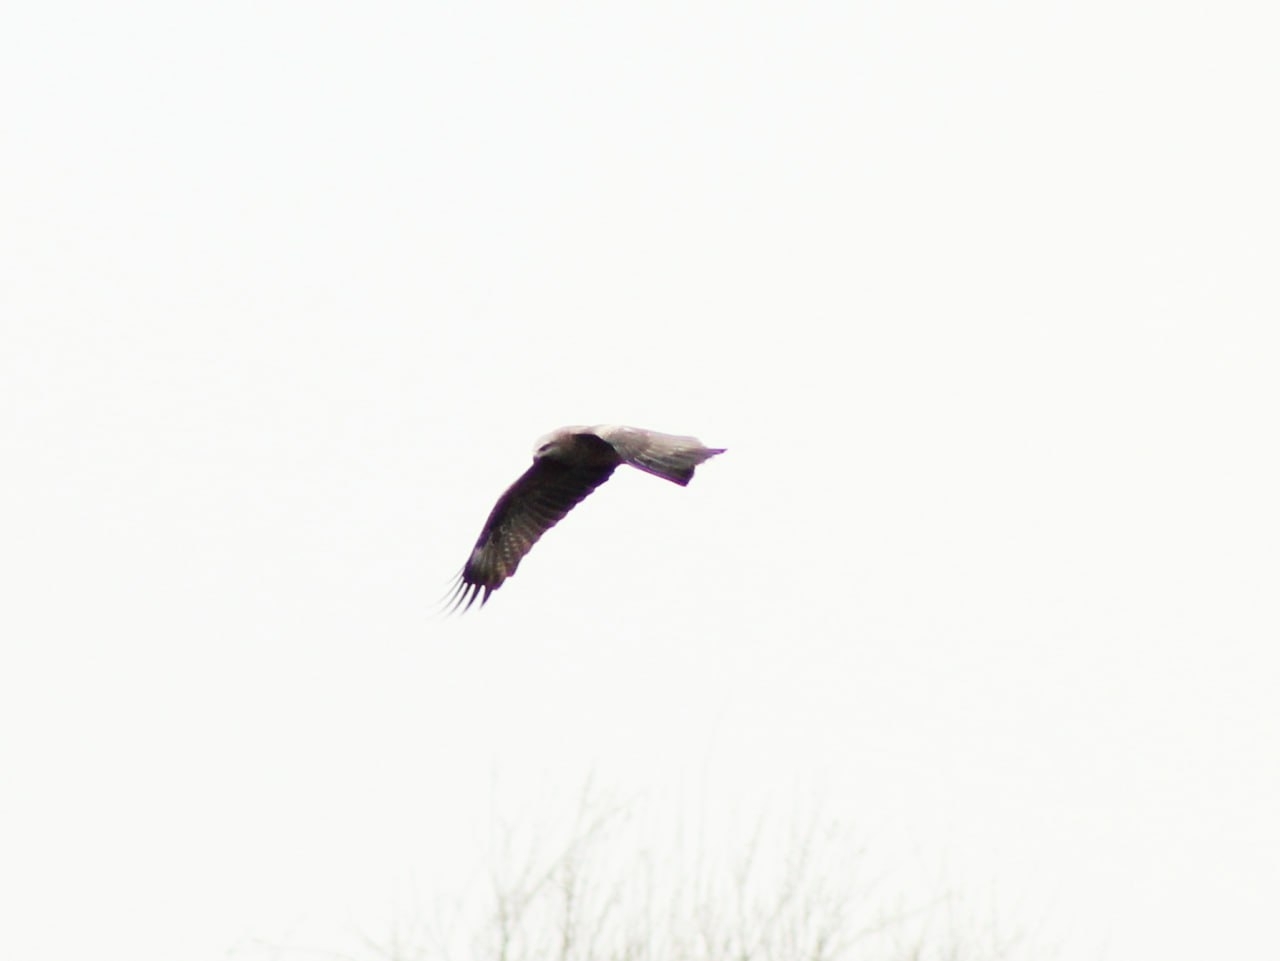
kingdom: Animalia
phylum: Chordata
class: Aves
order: Accipitriformes
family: Accipitridae
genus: Milvus
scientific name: Milvus migrans
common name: Black kite
